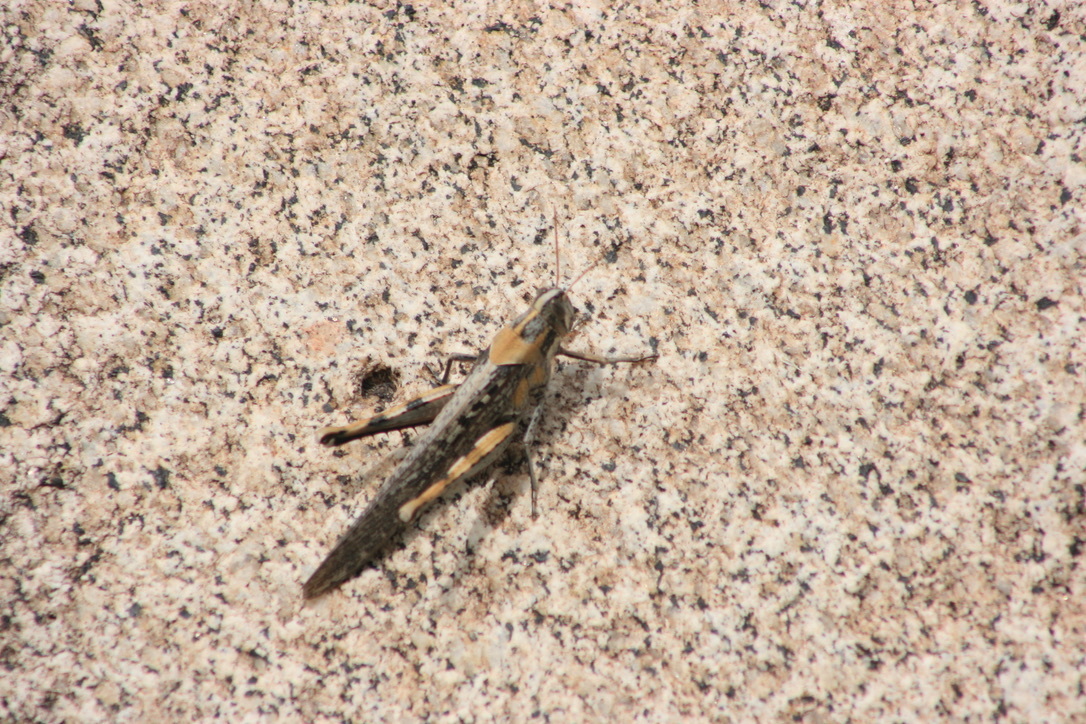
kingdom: Animalia
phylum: Arthropoda
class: Insecta
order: Orthoptera
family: Acrididae
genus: Schistocerca
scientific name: Schistocerca nitens
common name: Vagrant grasshopper
